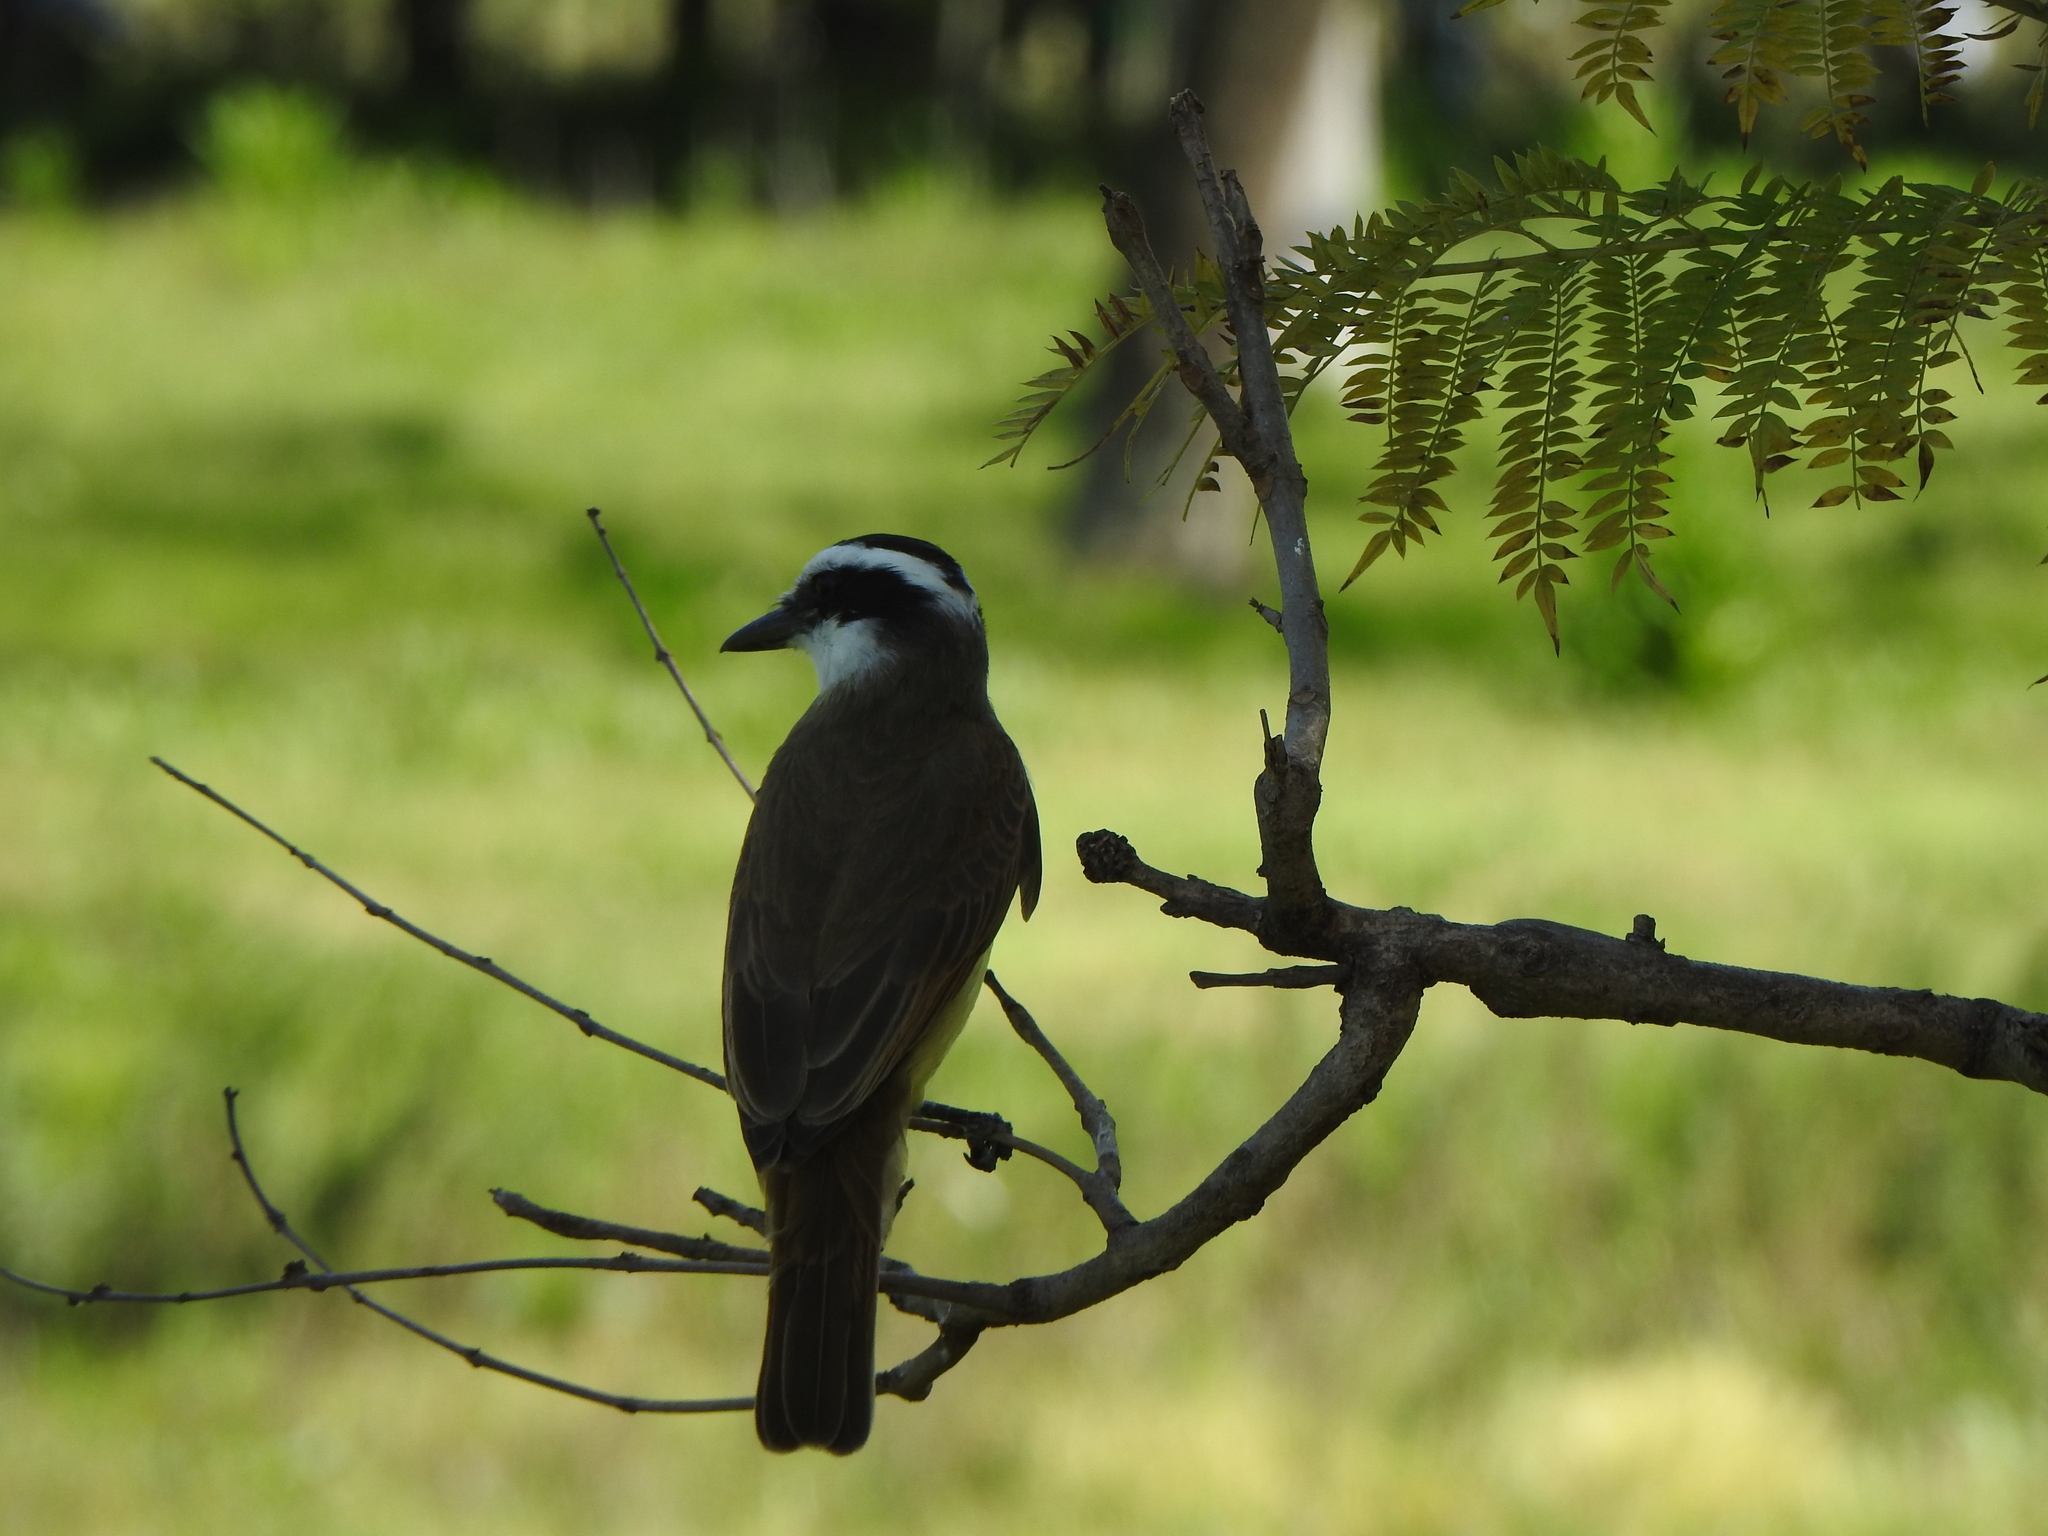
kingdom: Animalia
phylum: Chordata
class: Aves
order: Passeriformes
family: Tyrannidae
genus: Pitangus
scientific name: Pitangus sulphuratus
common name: Great kiskadee
